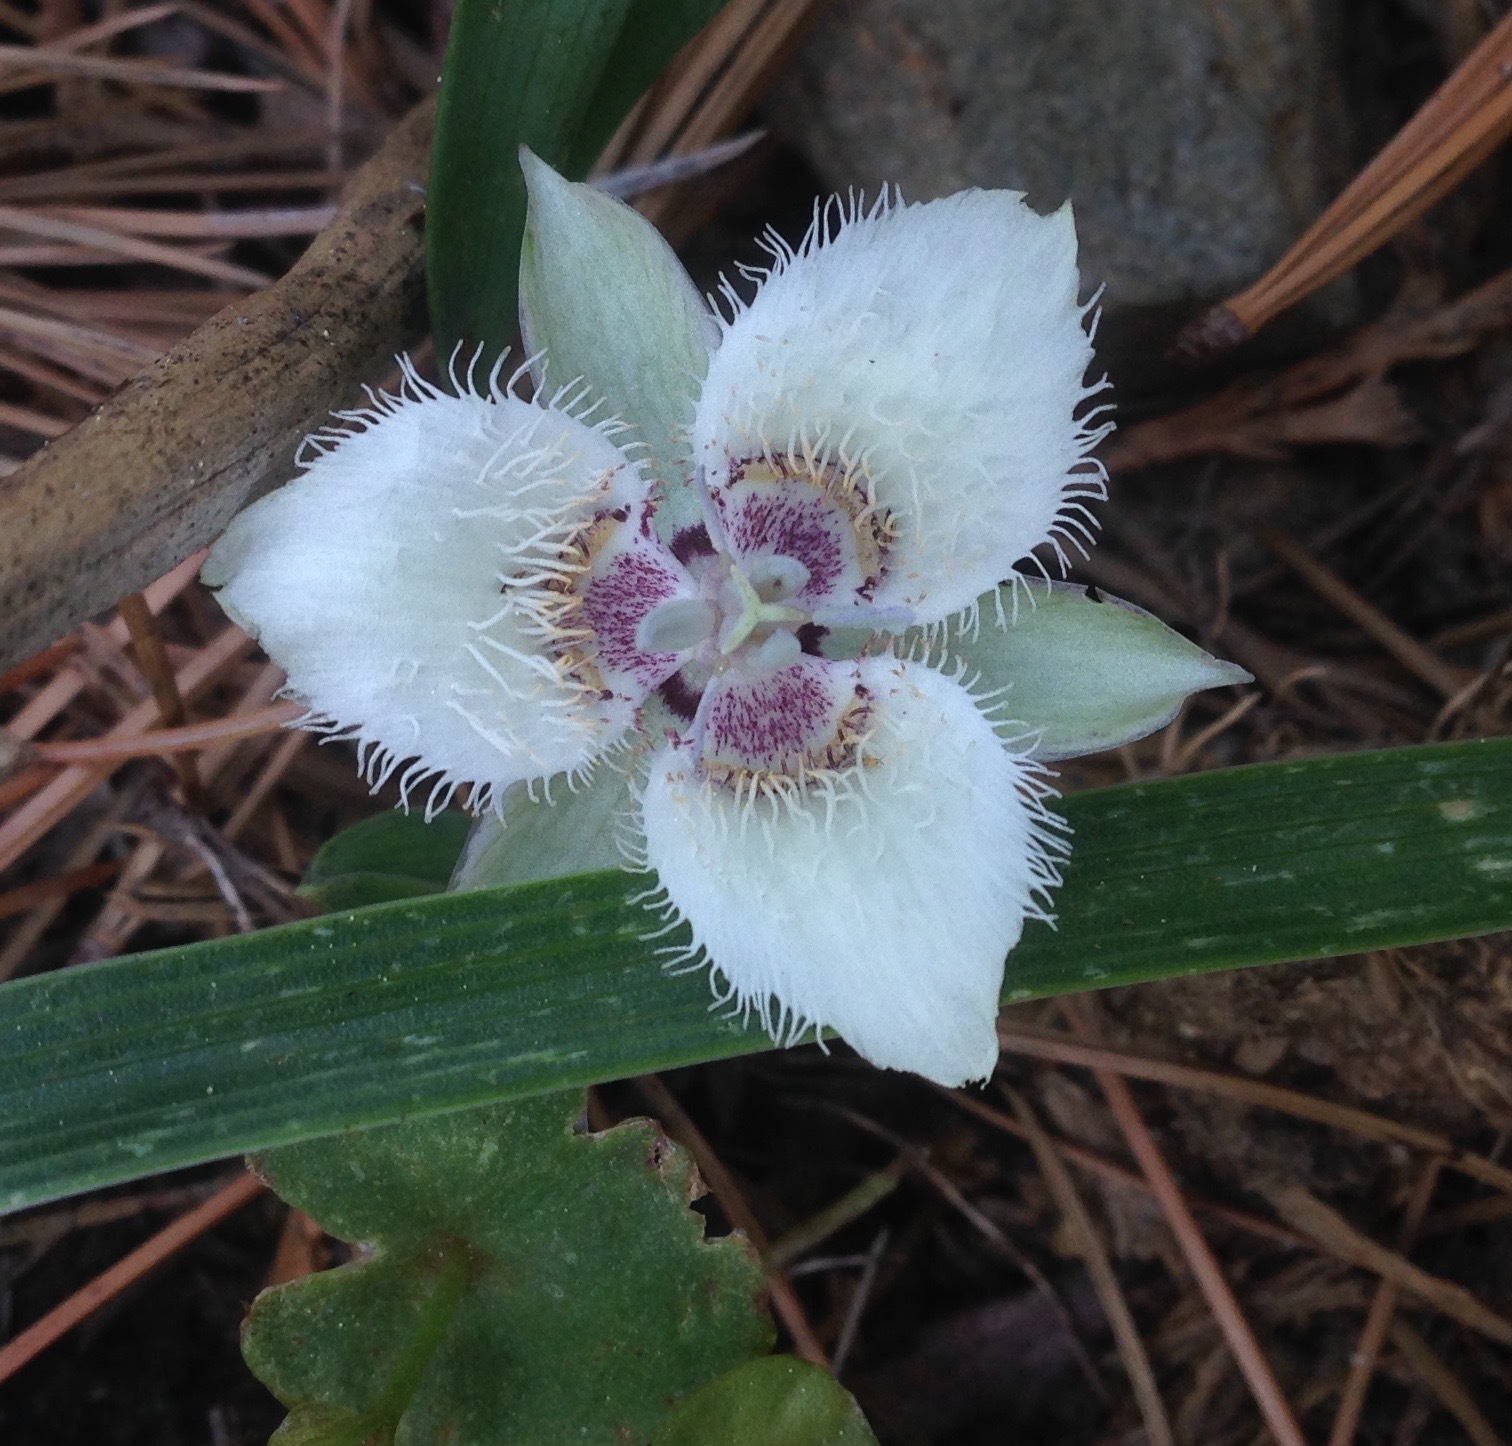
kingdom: Plantae
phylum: Tracheophyta
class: Liliopsida
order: Liliales
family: Liliaceae
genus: Calochortus
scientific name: Calochortus westonii
